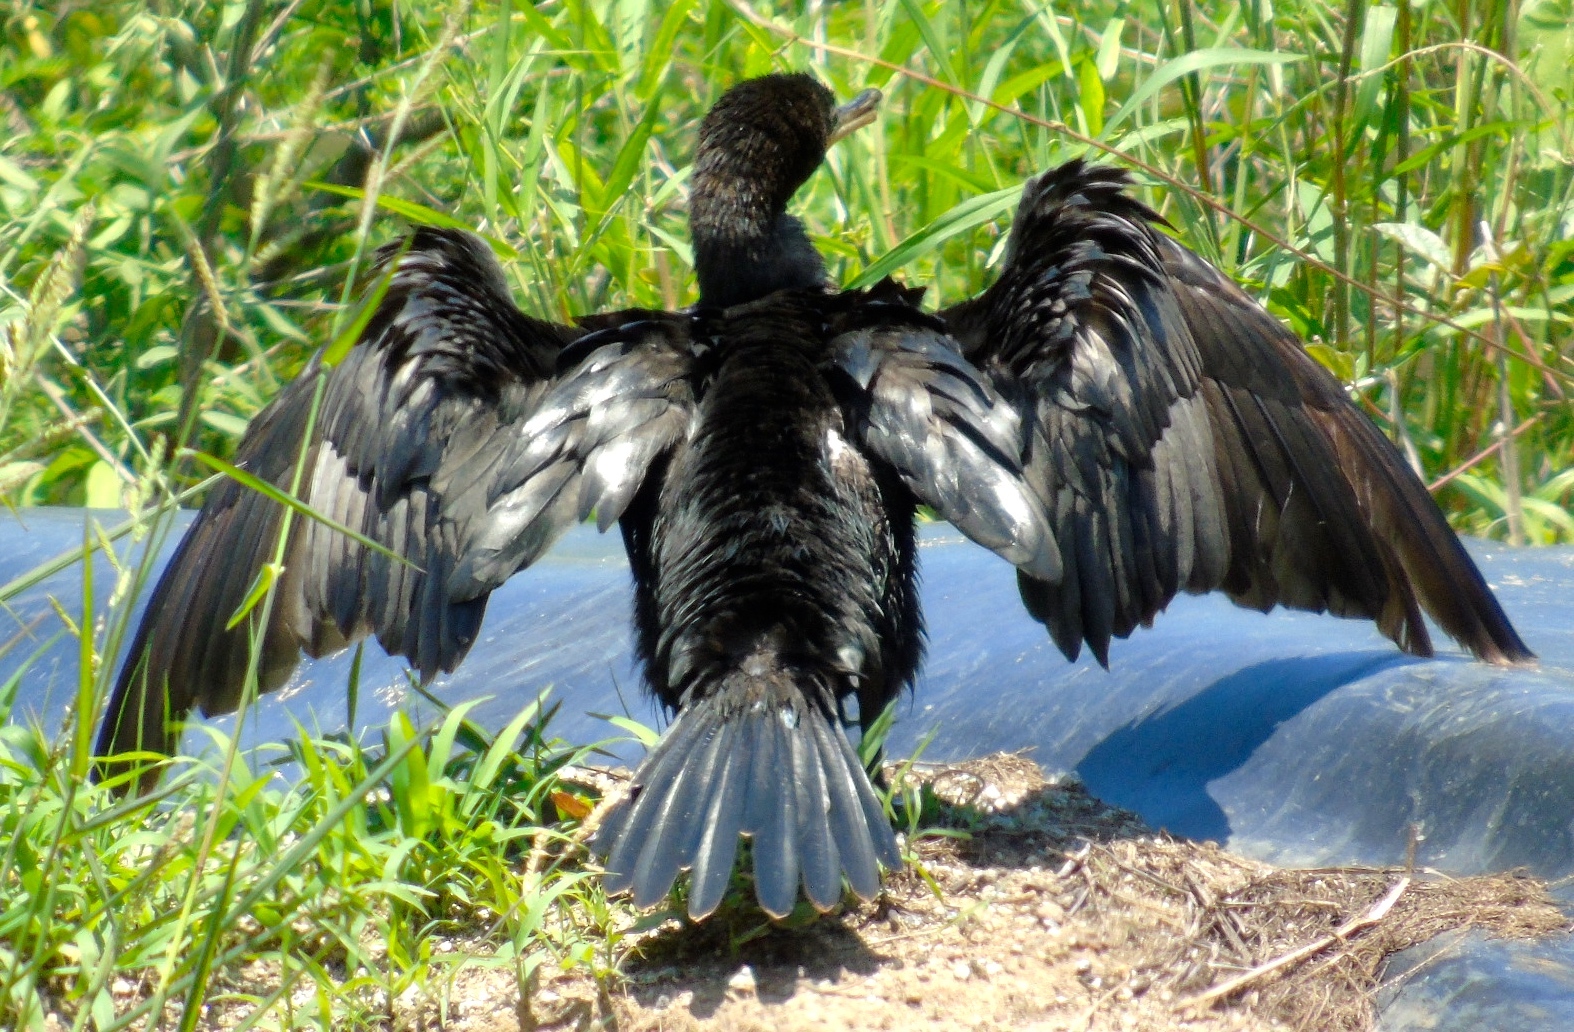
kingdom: Animalia
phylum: Chordata
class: Aves
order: Suliformes
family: Phalacrocoracidae
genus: Phalacrocorax
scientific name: Phalacrocorax brasilianus
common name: Neotropic cormorant
